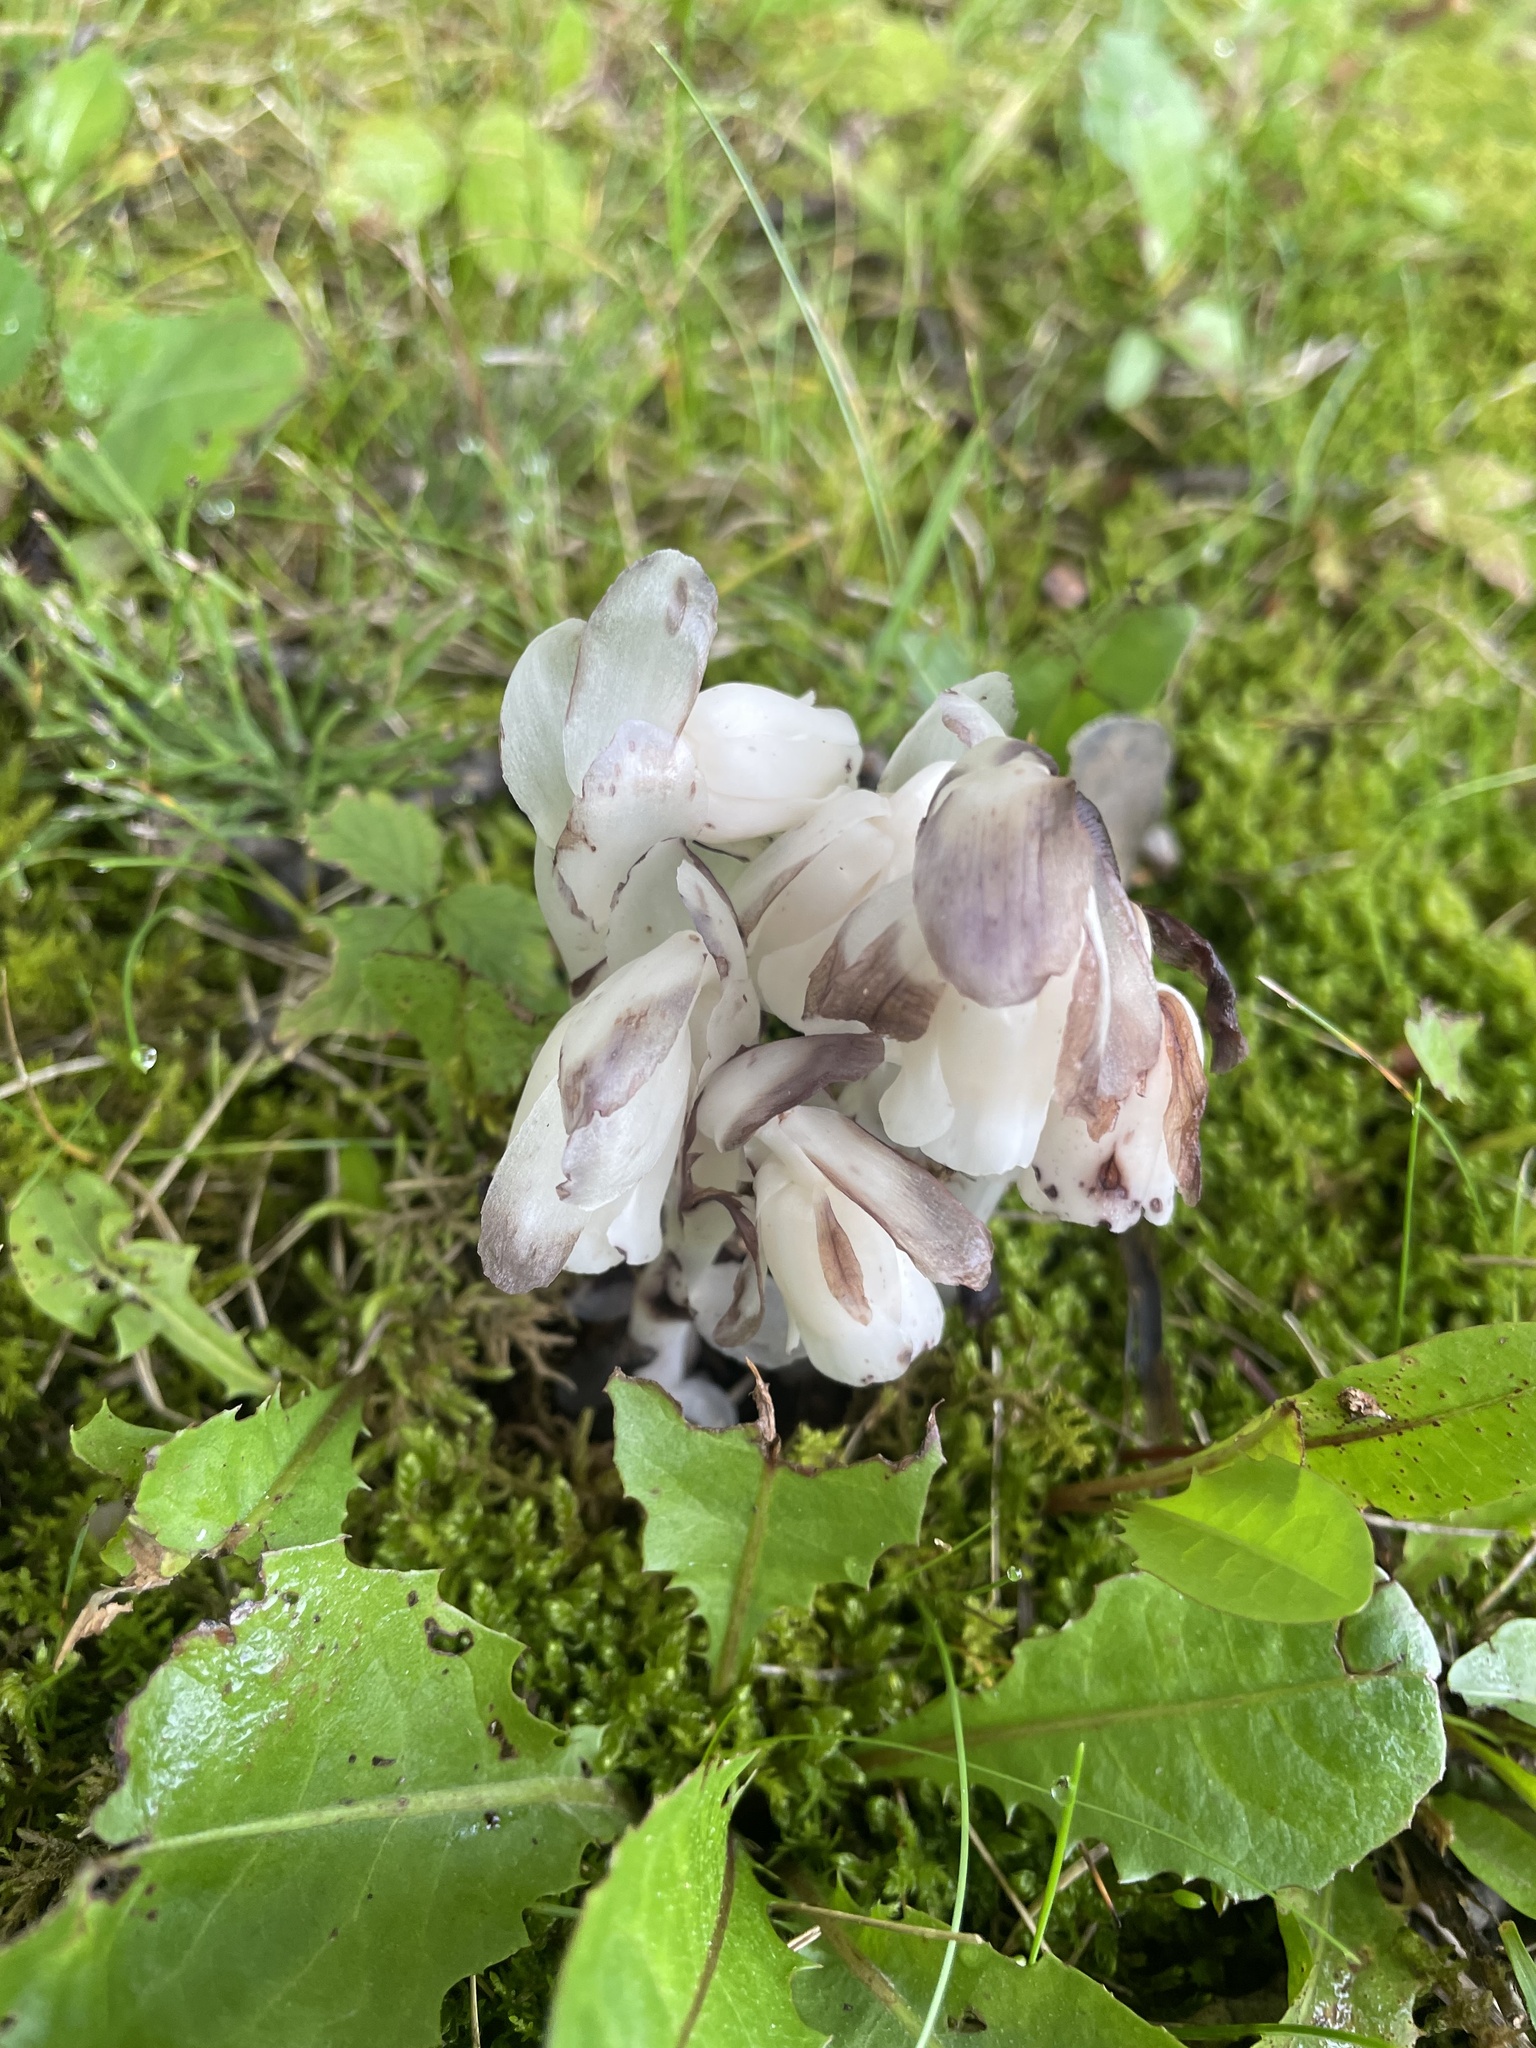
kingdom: Plantae
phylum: Tracheophyta
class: Magnoliopsida
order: Ericales
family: Ericaceae
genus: Monotropa
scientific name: Monotropa uniflora
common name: Convulsion root
